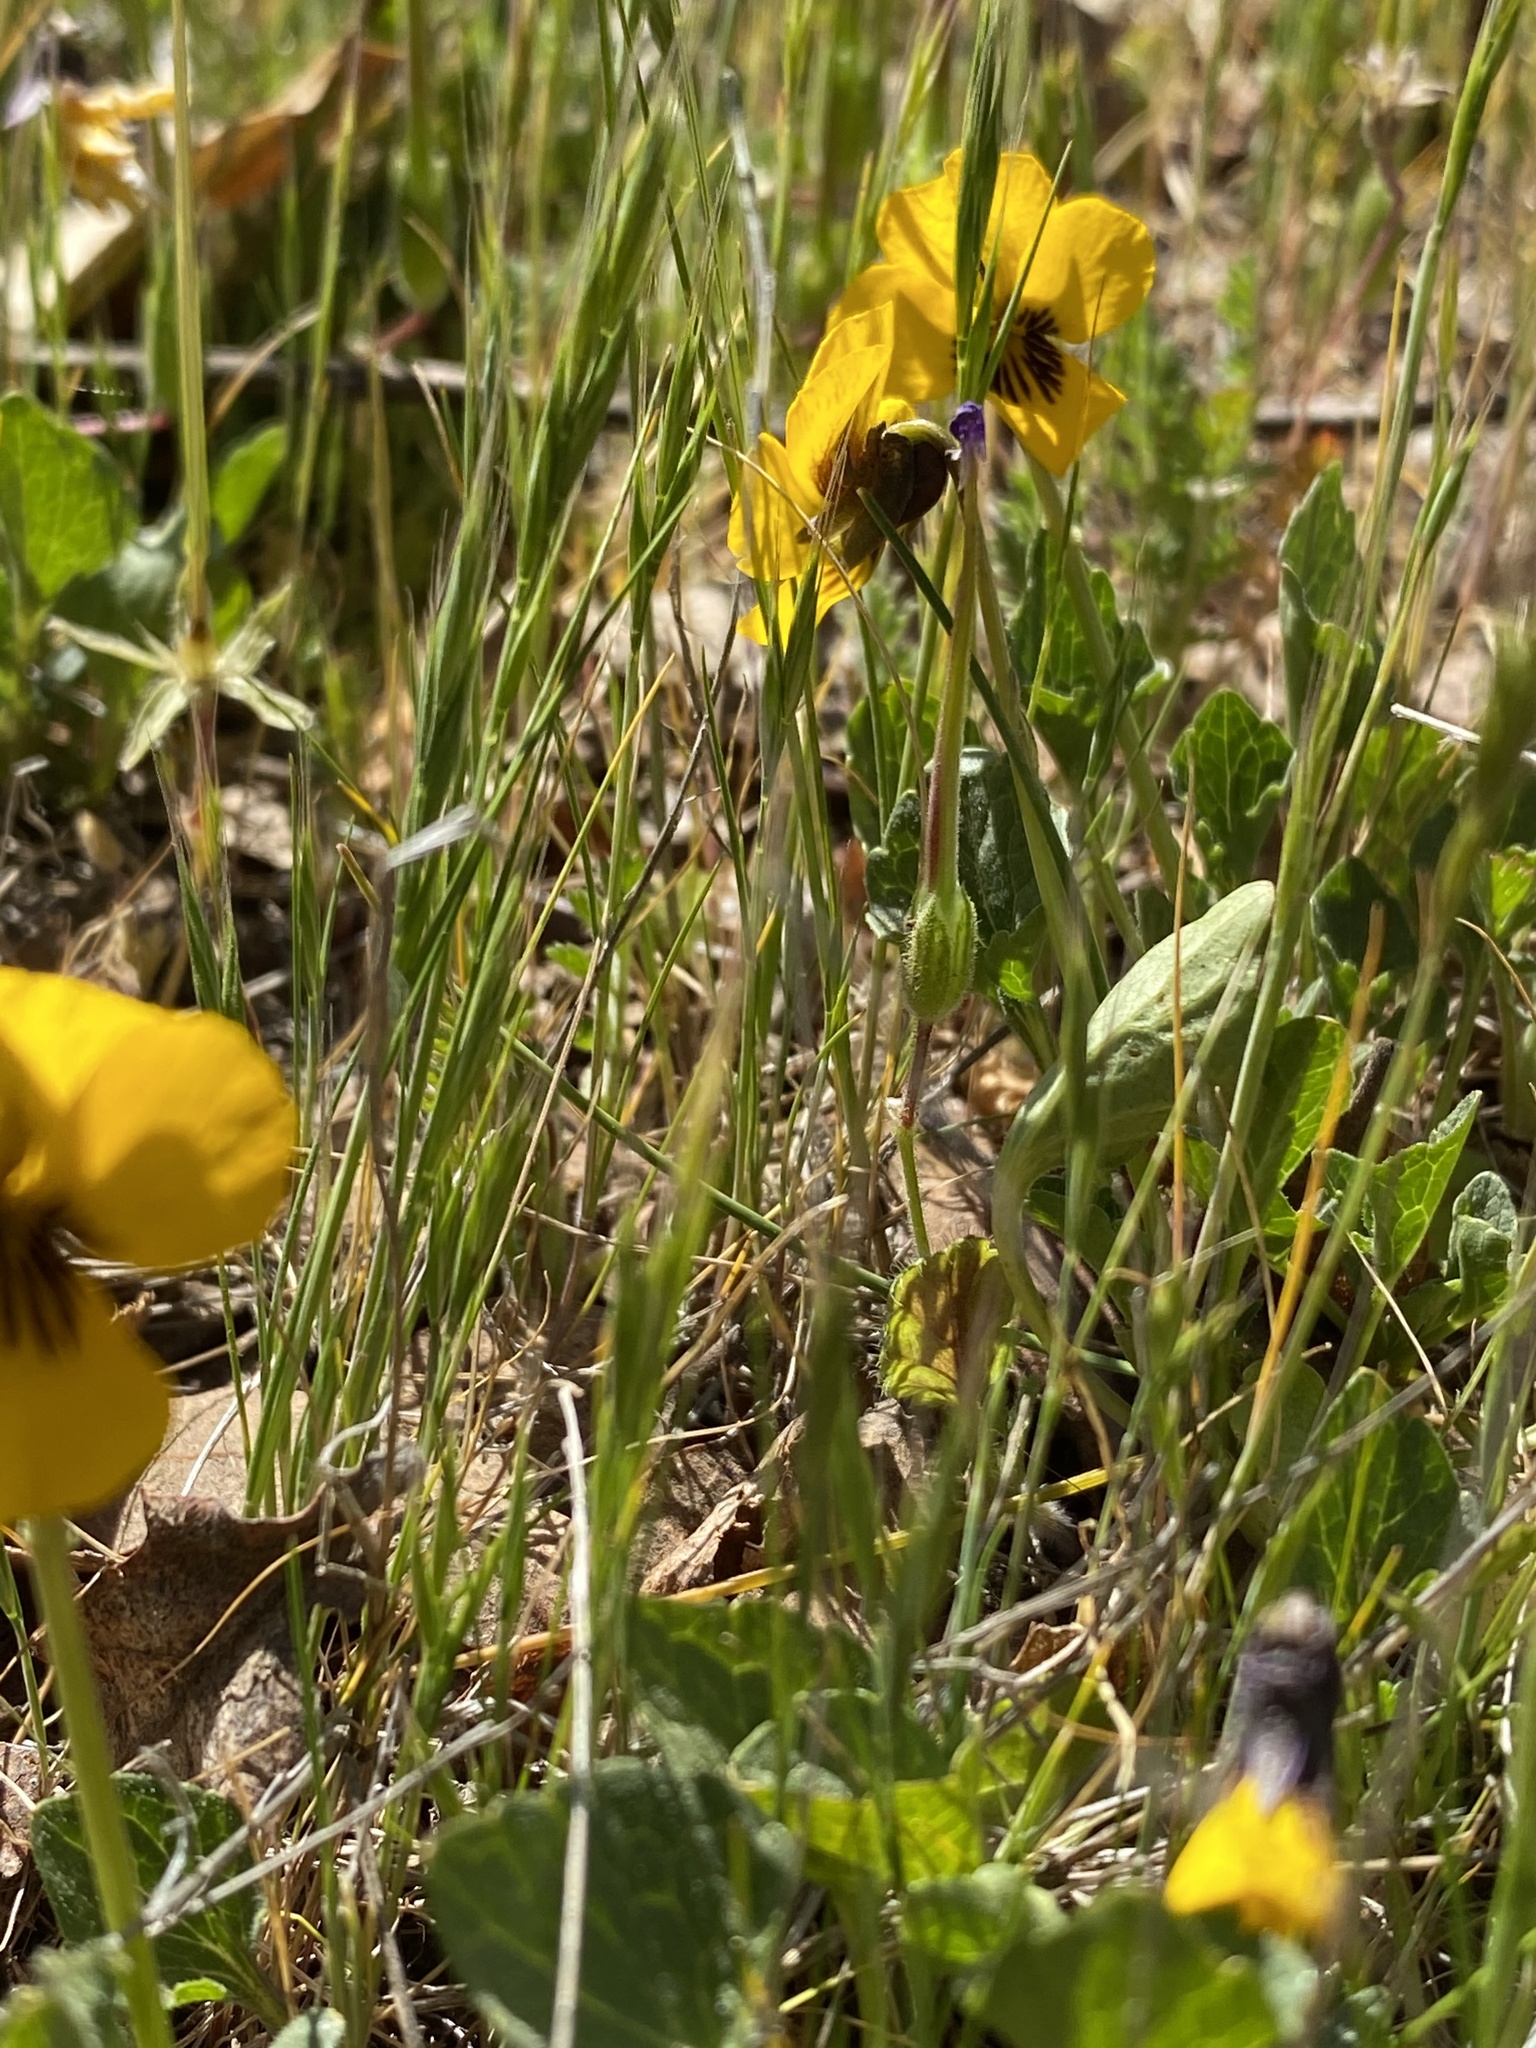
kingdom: Plantae
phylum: Tracheophyta
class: Magnoliopsida
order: Malpighiales
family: Violaceae
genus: Viola
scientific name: Viola pedunculata
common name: California golden violet
